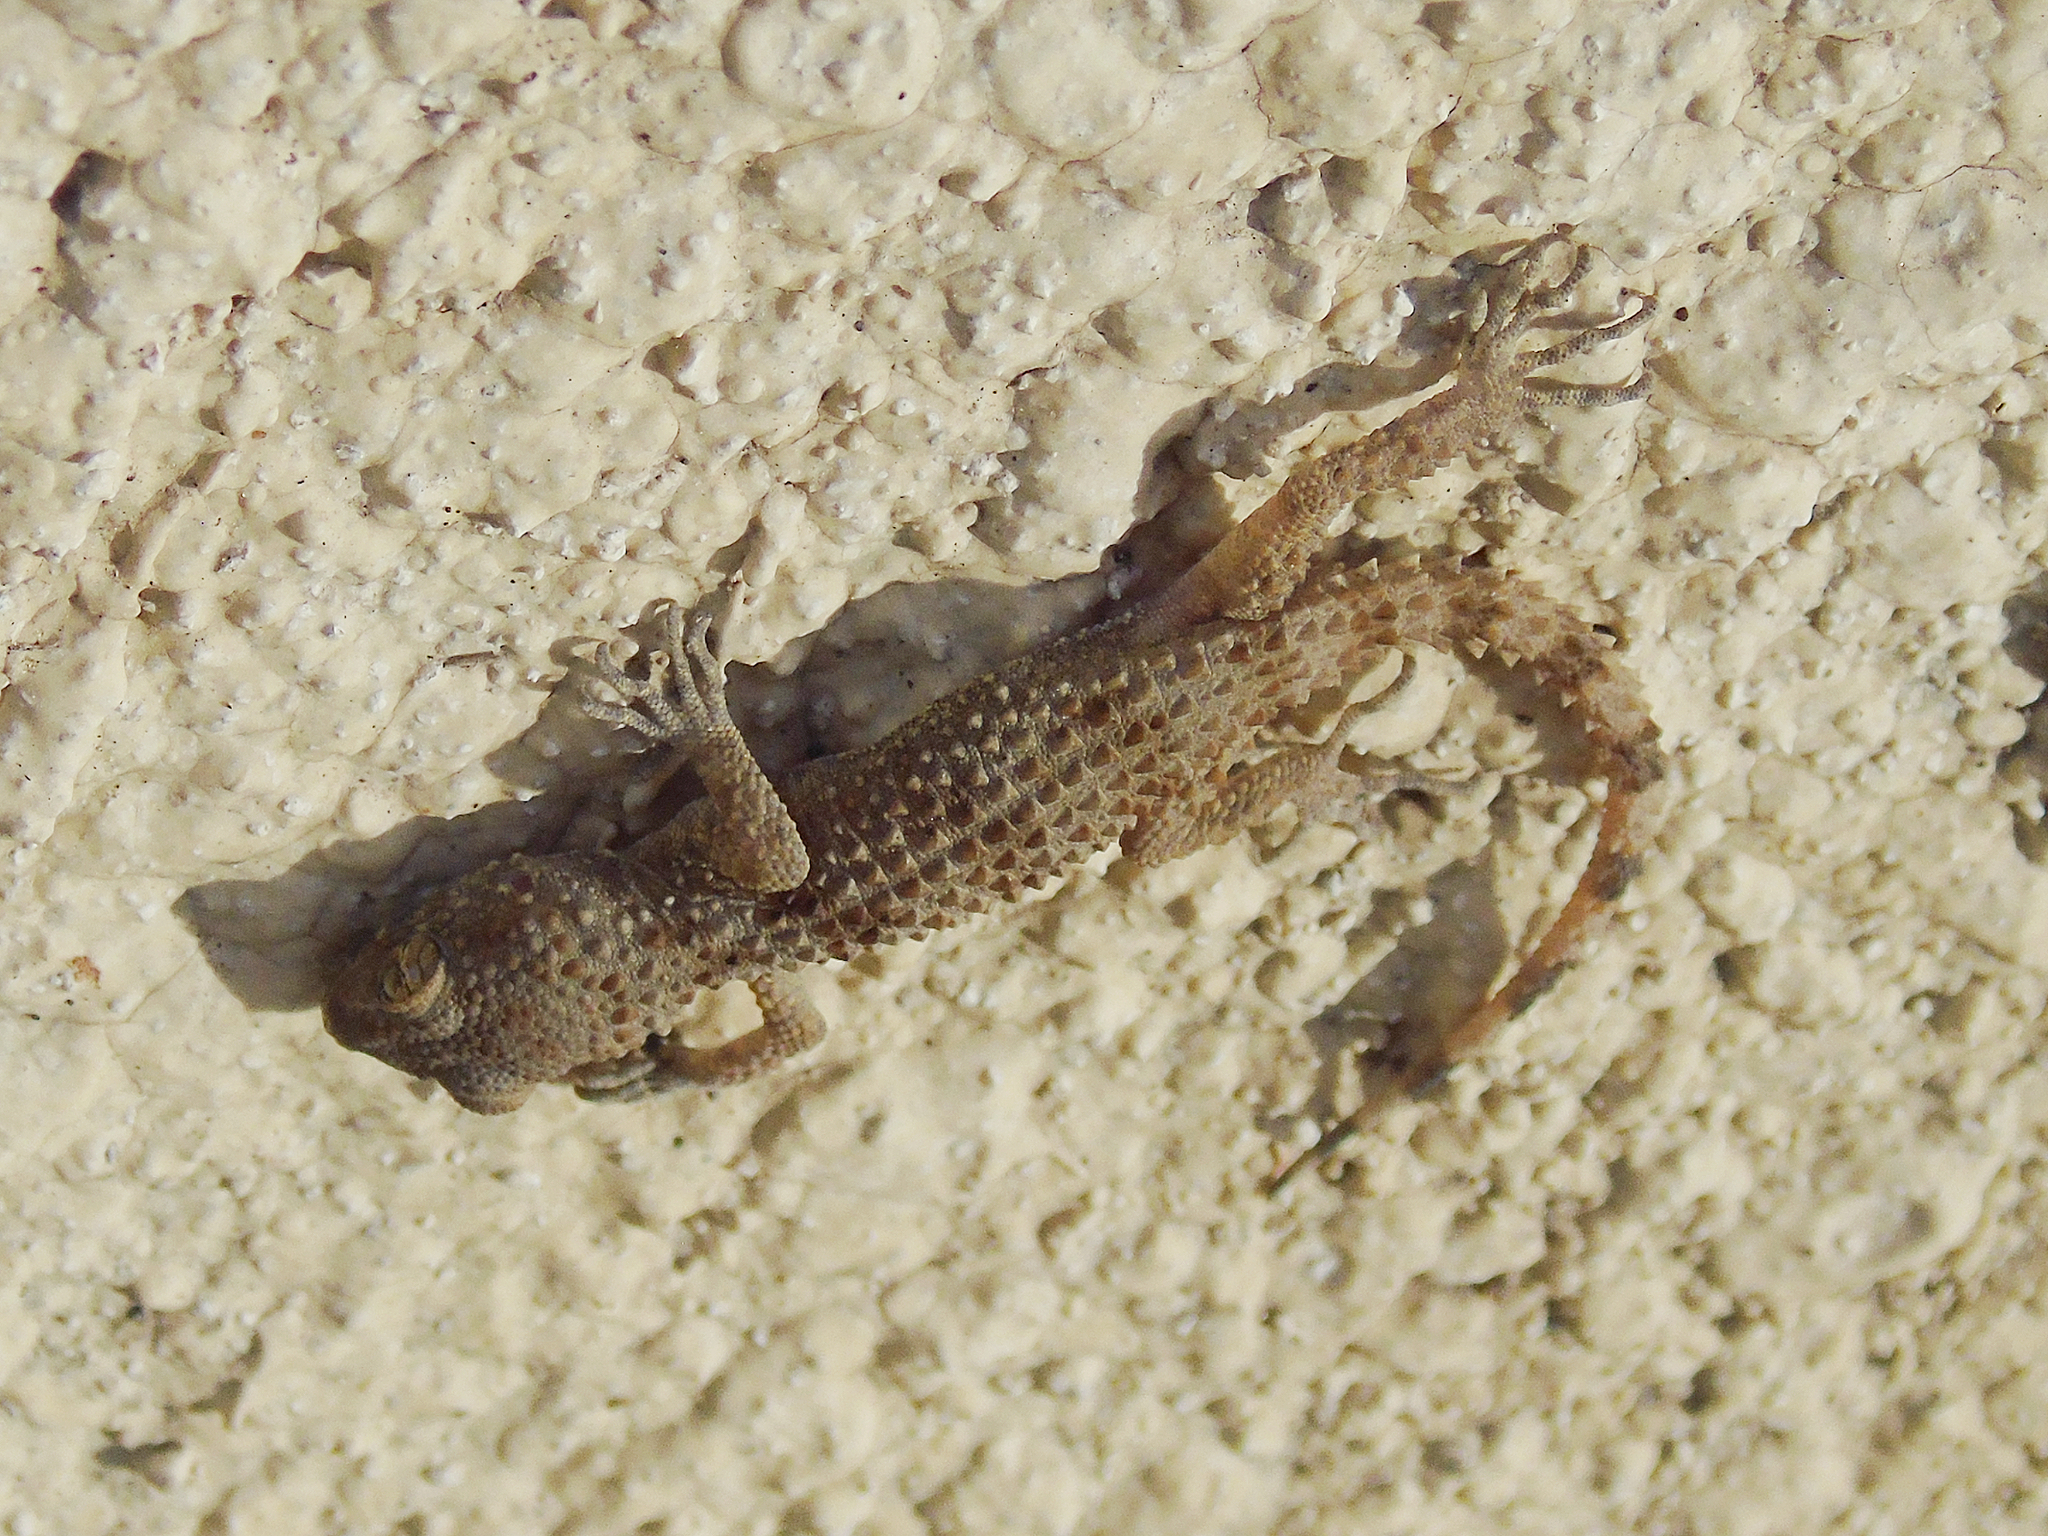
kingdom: Animalia
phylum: Chordata
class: Squamata
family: Gekkonidae
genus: Tenuidactylus
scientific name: Tenuidactylus caspius
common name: Caspian bent-toed gecko
